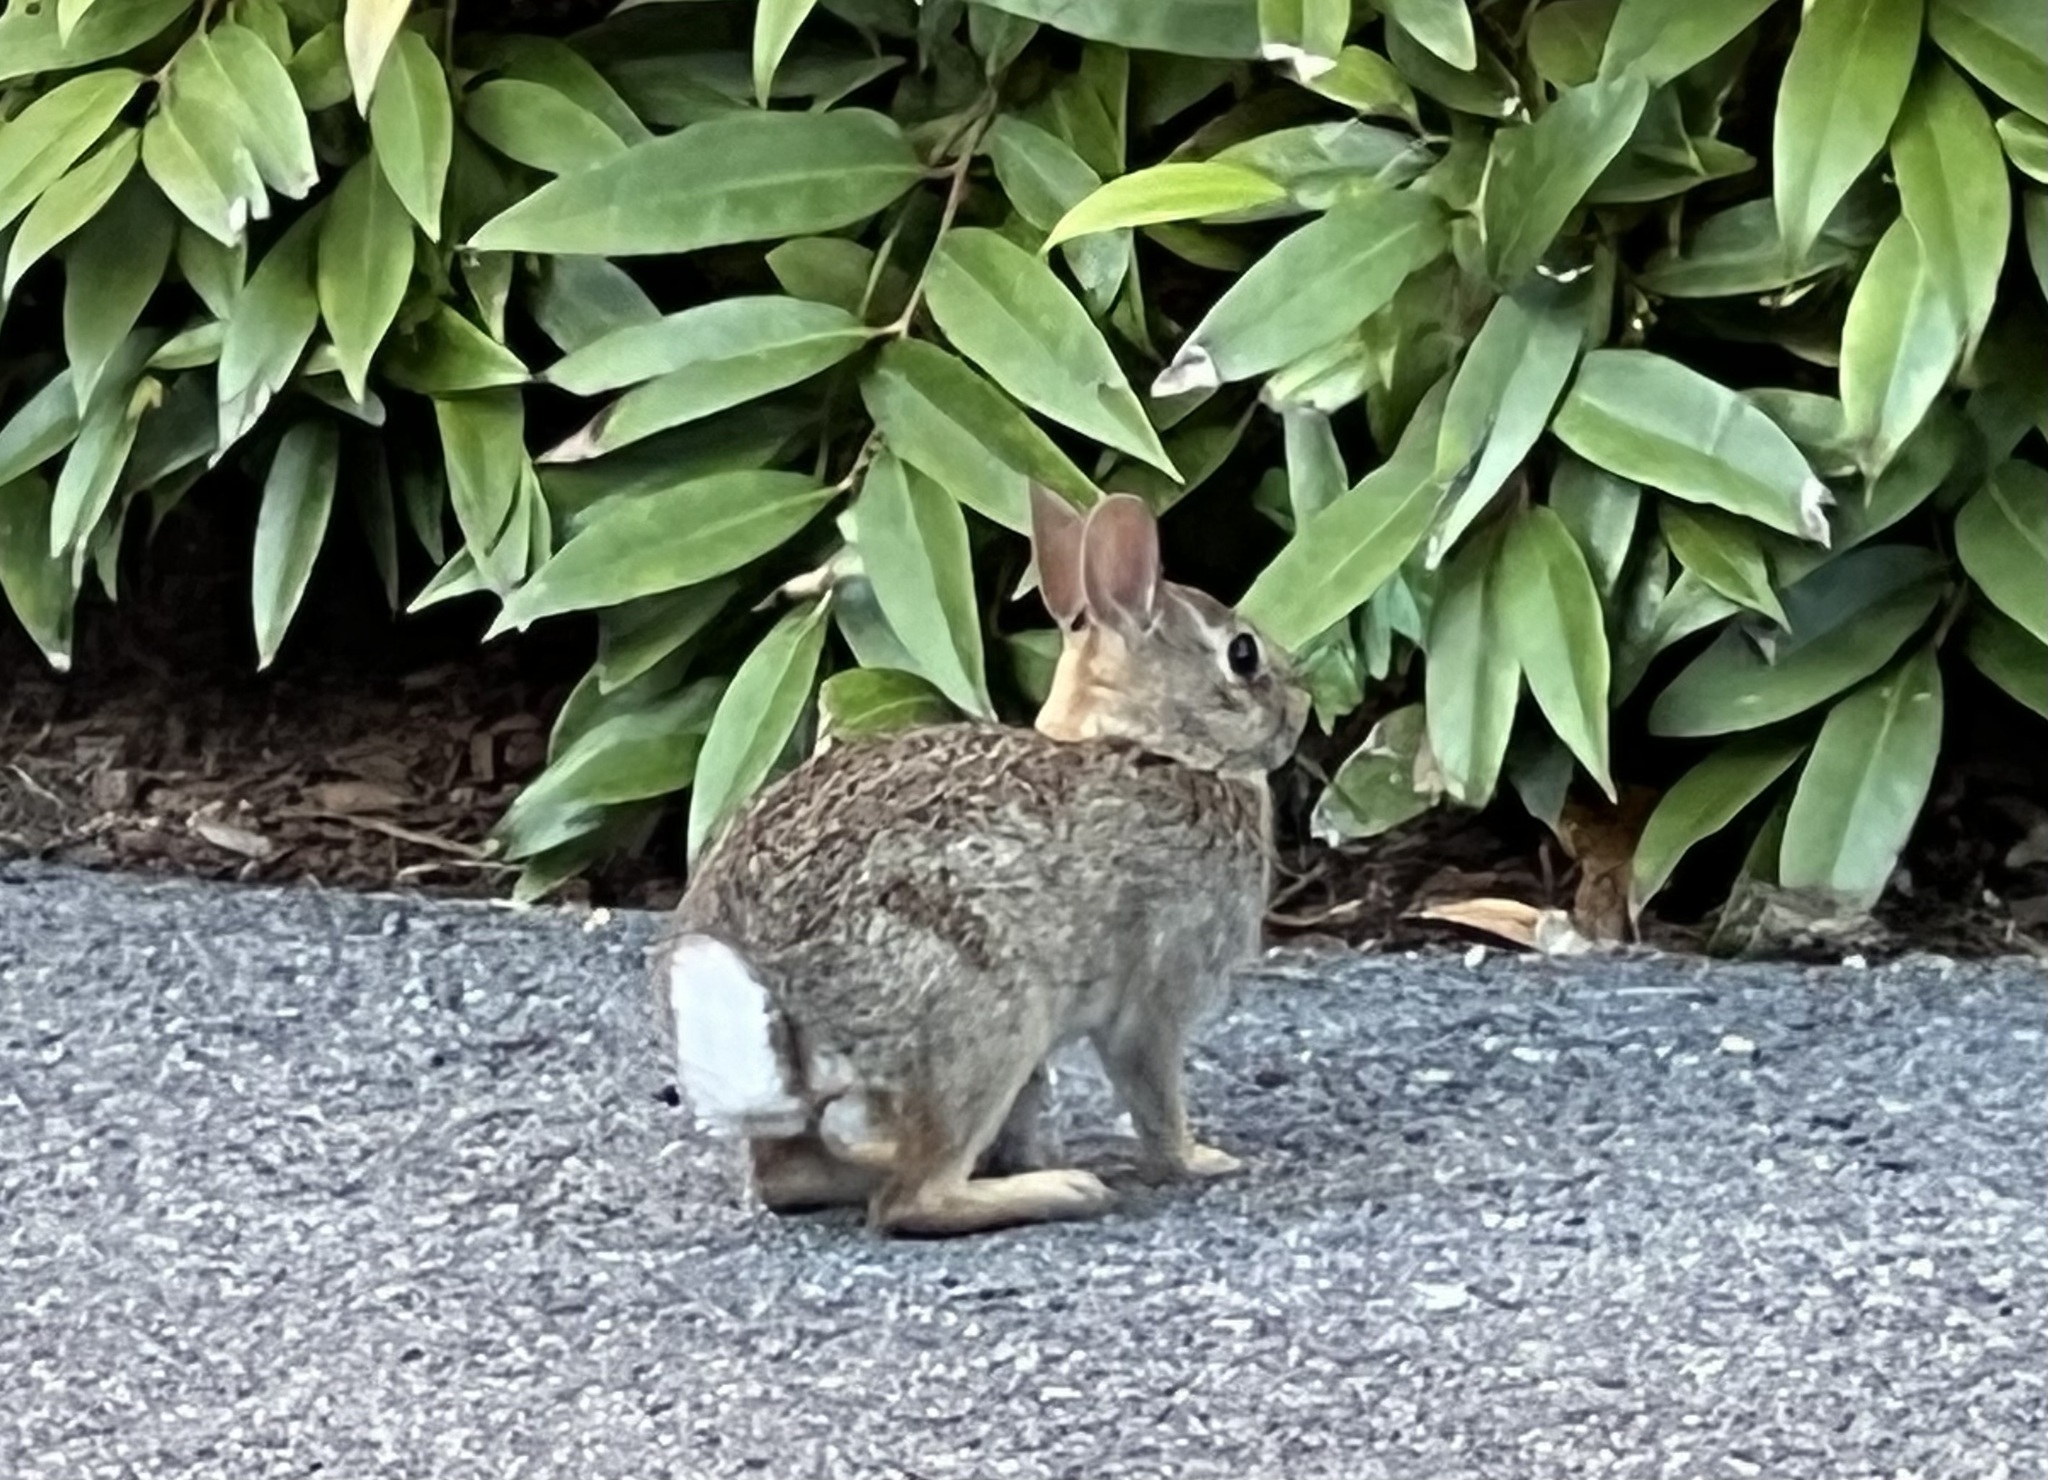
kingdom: Animalia
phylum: Chordata
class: Mammalia
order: Lagomorpha
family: Leporidae
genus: Sylvilagus
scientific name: Sylvilagus floridanus
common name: Eastern cottontail
